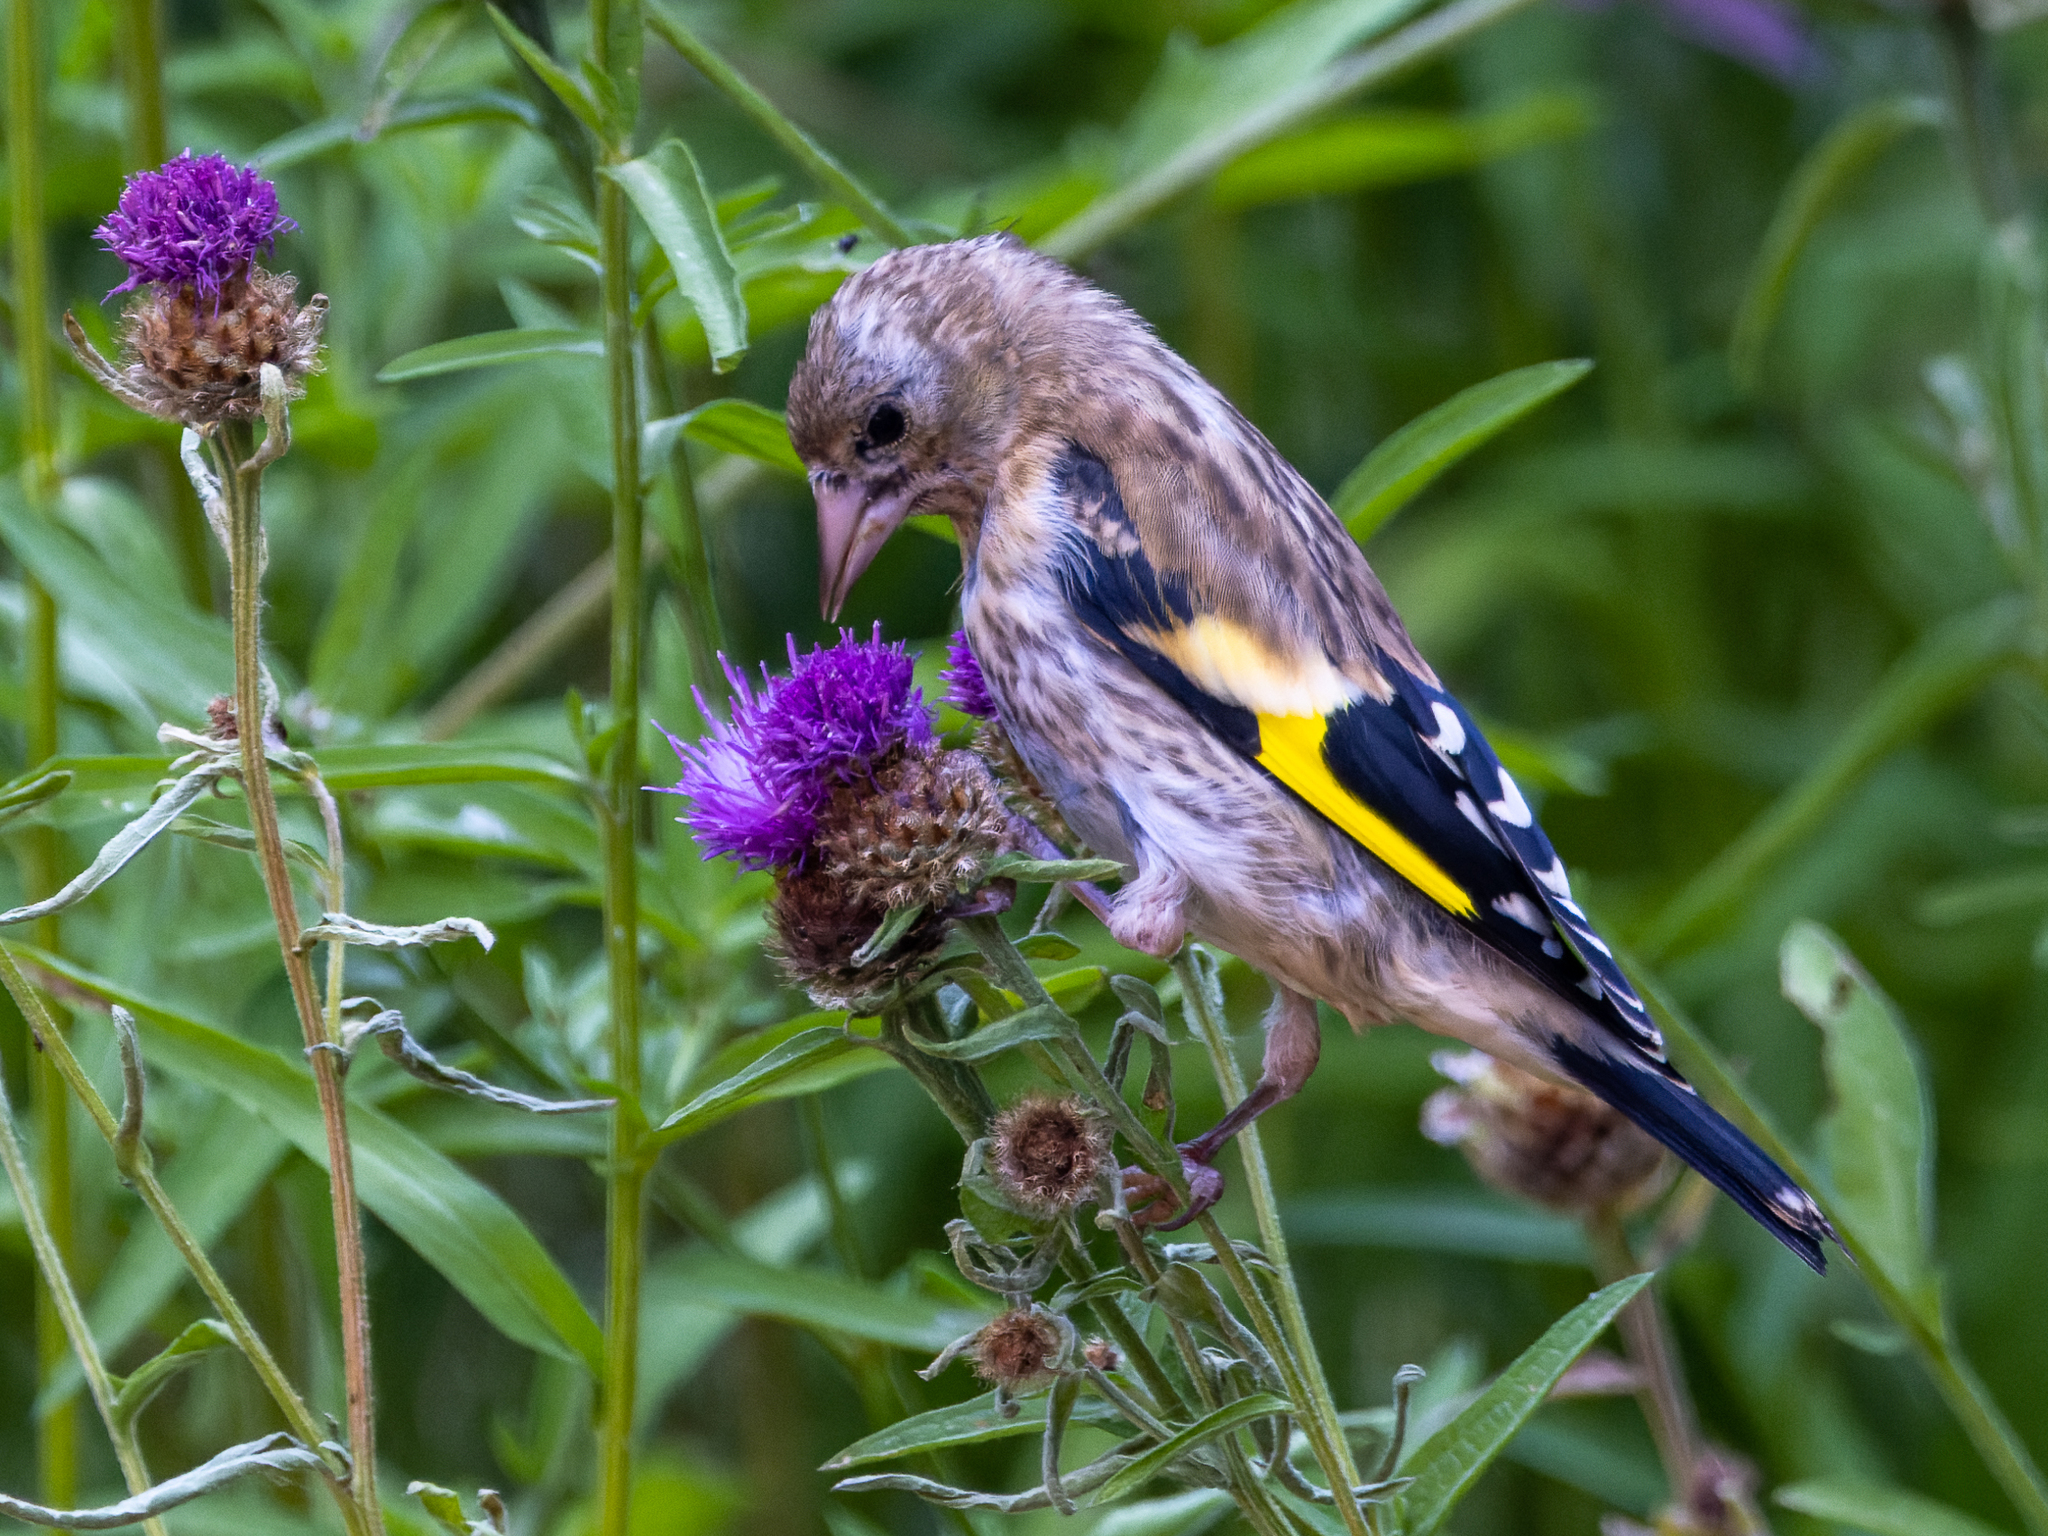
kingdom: Animalia
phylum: Chordata
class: Aves
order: Passeriformes
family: Fringillidae
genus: Carduelis
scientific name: Carduelis carduelis
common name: European goldfinch
